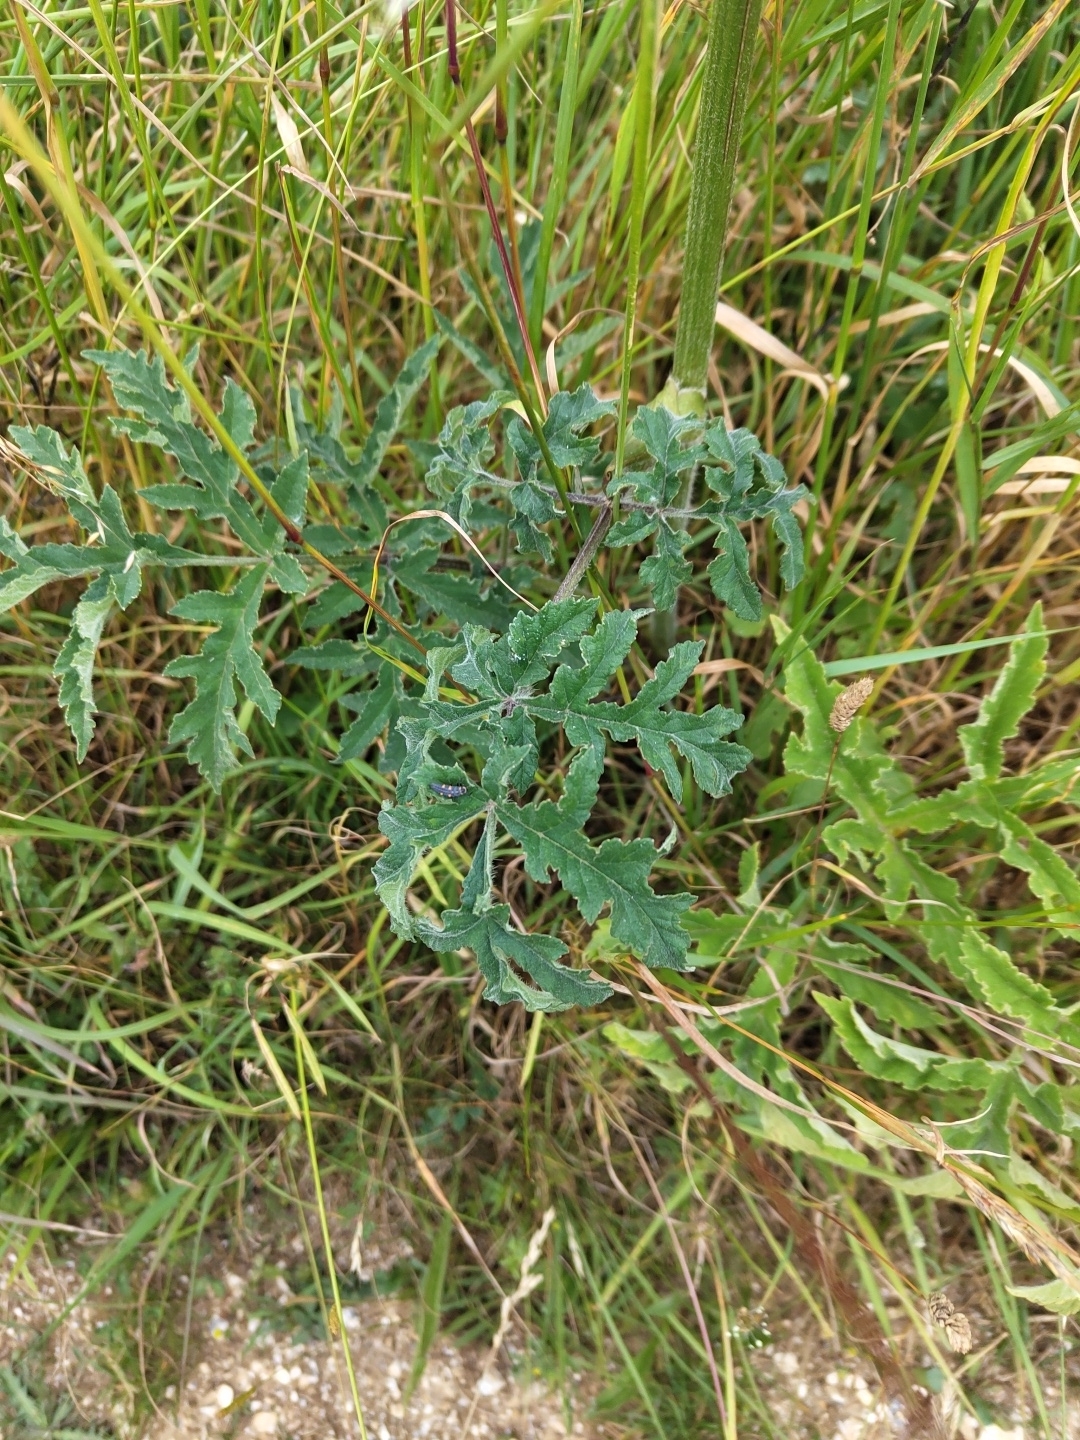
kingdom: Plantae
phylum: Tracheophyta
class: Magnoliopsida
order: Apiales
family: Apiaceae
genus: Heracleum
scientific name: Heracleum sphondylium
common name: Hogweed
